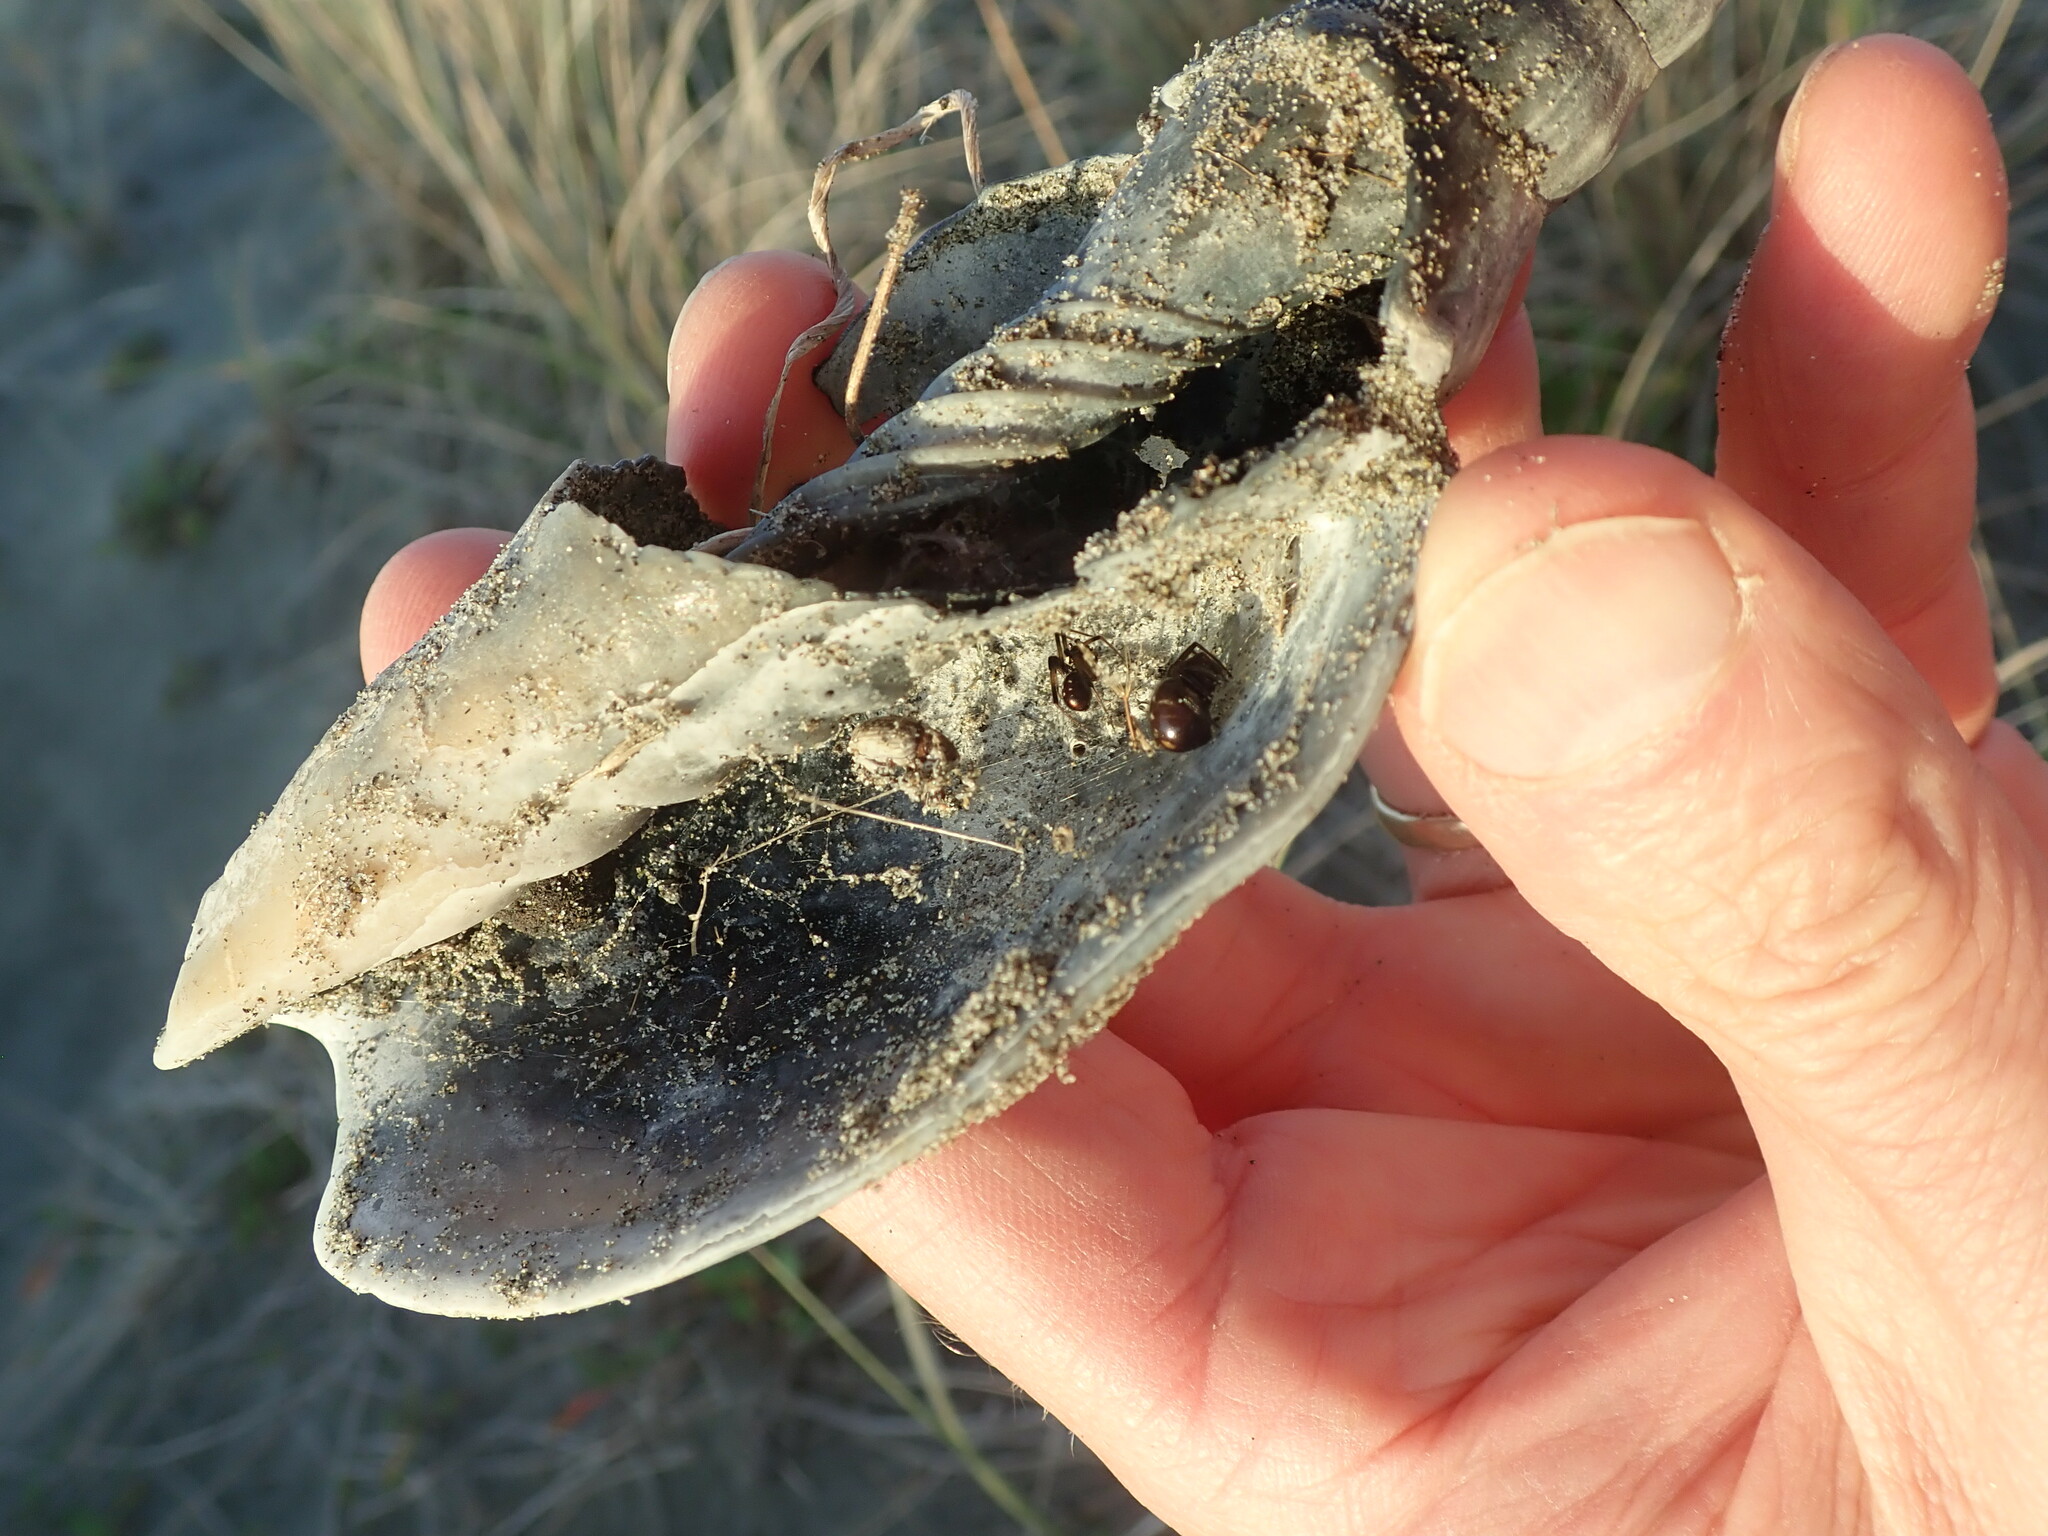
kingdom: Animalia
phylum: Arthropoda
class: Arachnida
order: Araneae
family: Theridiidae
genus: Steatoda
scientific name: Steatoda capensis
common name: Cobweb weaver
